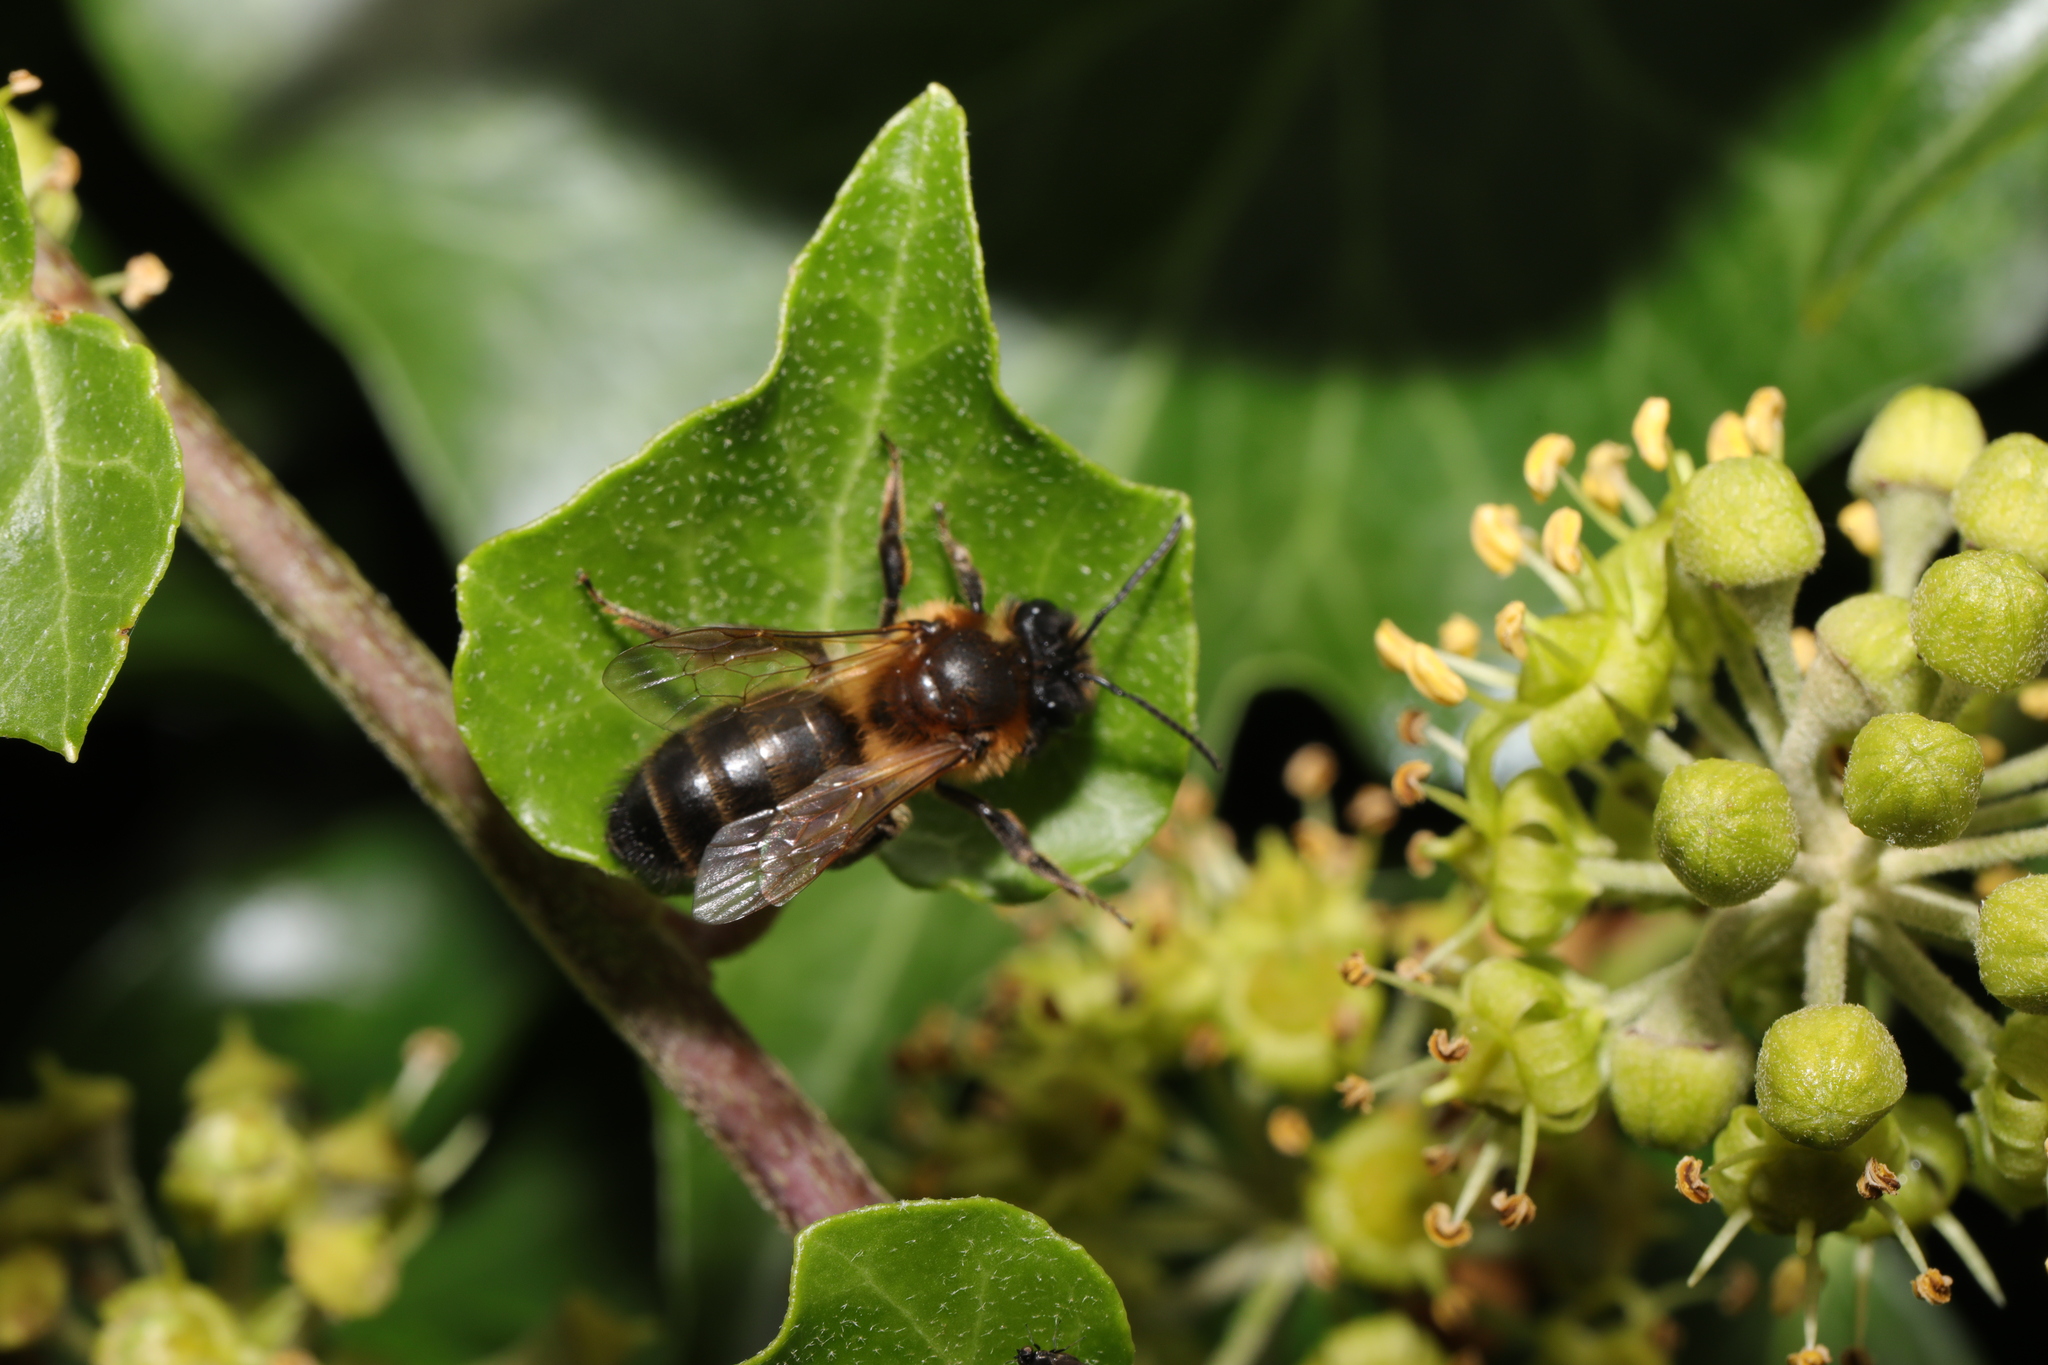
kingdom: Animalia
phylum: Arthropoda
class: Insecta
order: Hymenoptera
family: Andrenidae
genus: Andrena
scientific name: Andrena carantonica
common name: Chocolate mining bee
